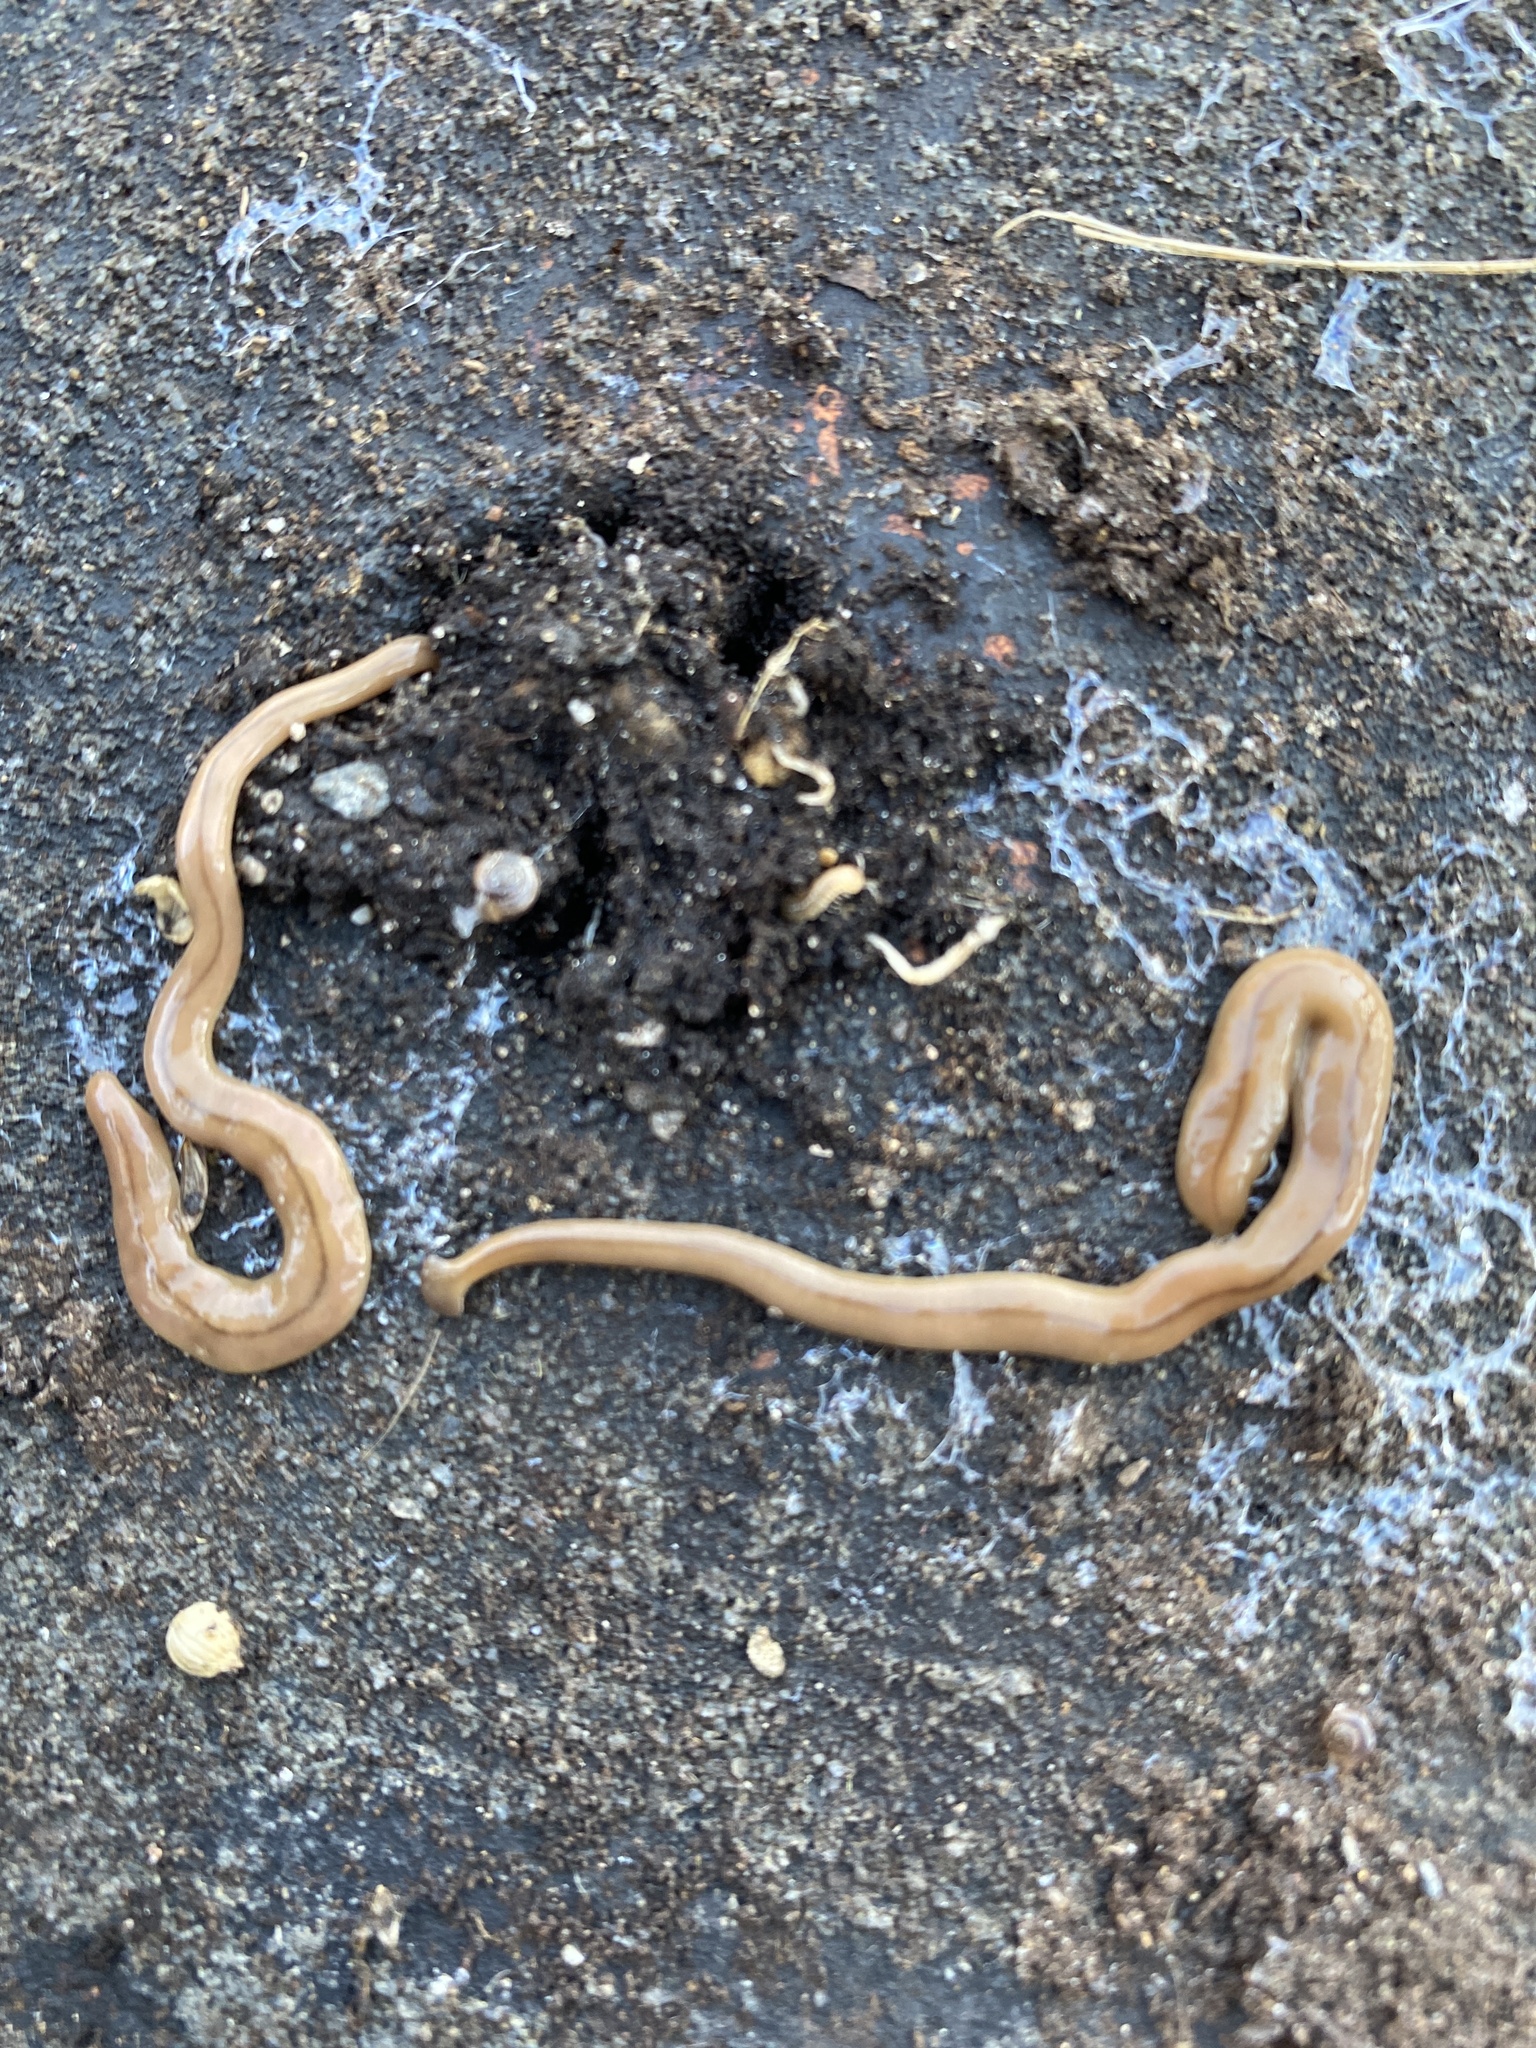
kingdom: Animalia
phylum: Platyhelminthes
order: Tricladida
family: Geoplanidae
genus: Bipalium
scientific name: Bipalium adventitium
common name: Land planarian
